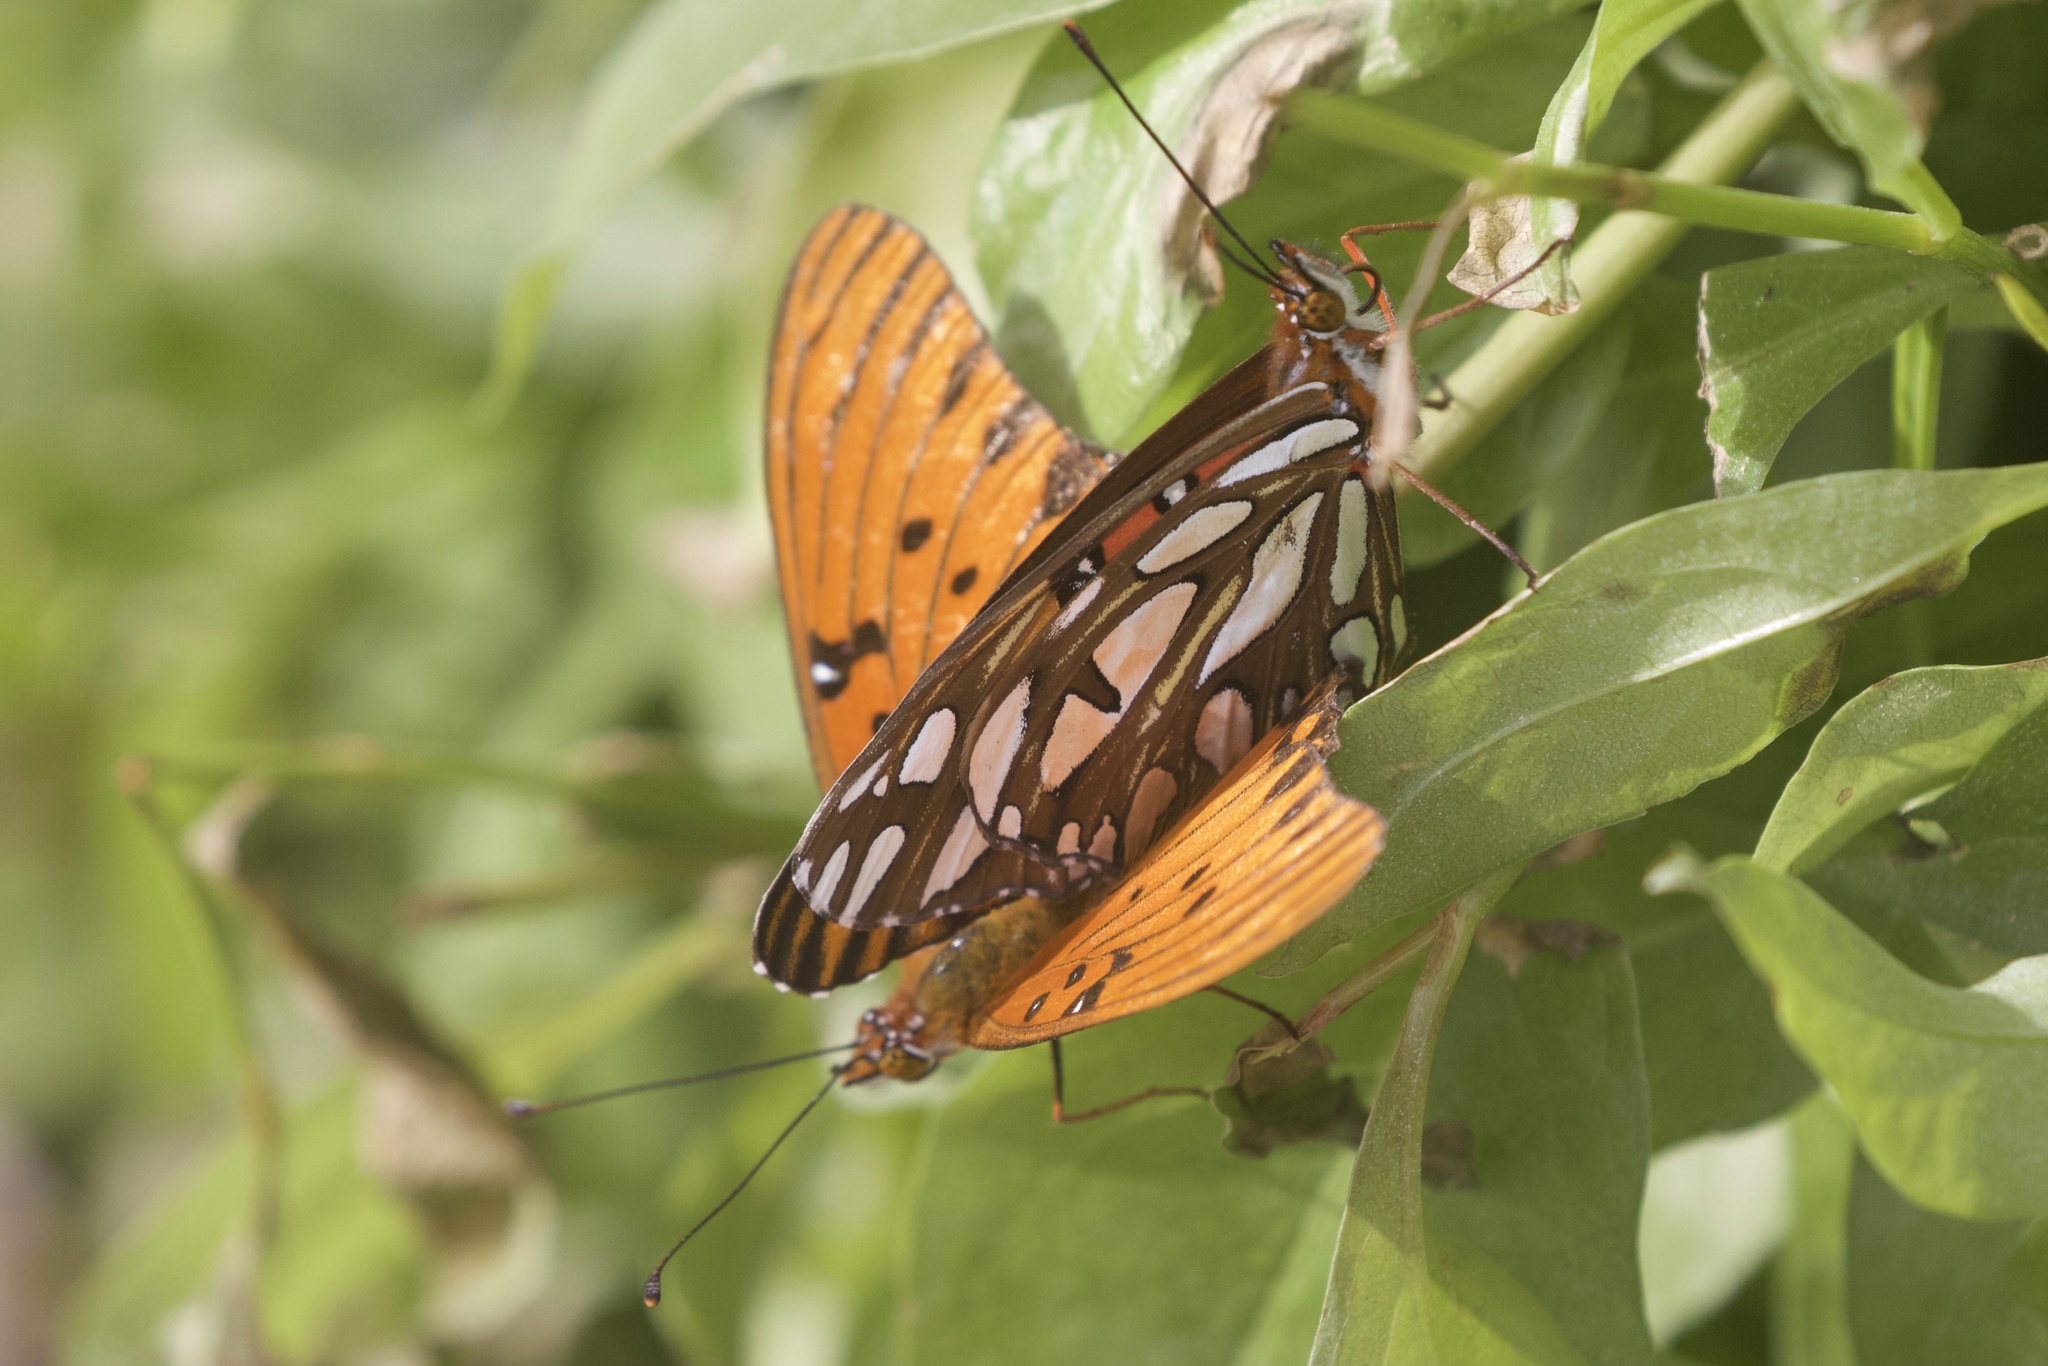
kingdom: Animalia
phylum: Arthropoda
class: Insecta
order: Lepidoptera
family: Nymphalidae
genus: Dione
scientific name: Dione vanillae
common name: Gulf fritillary
